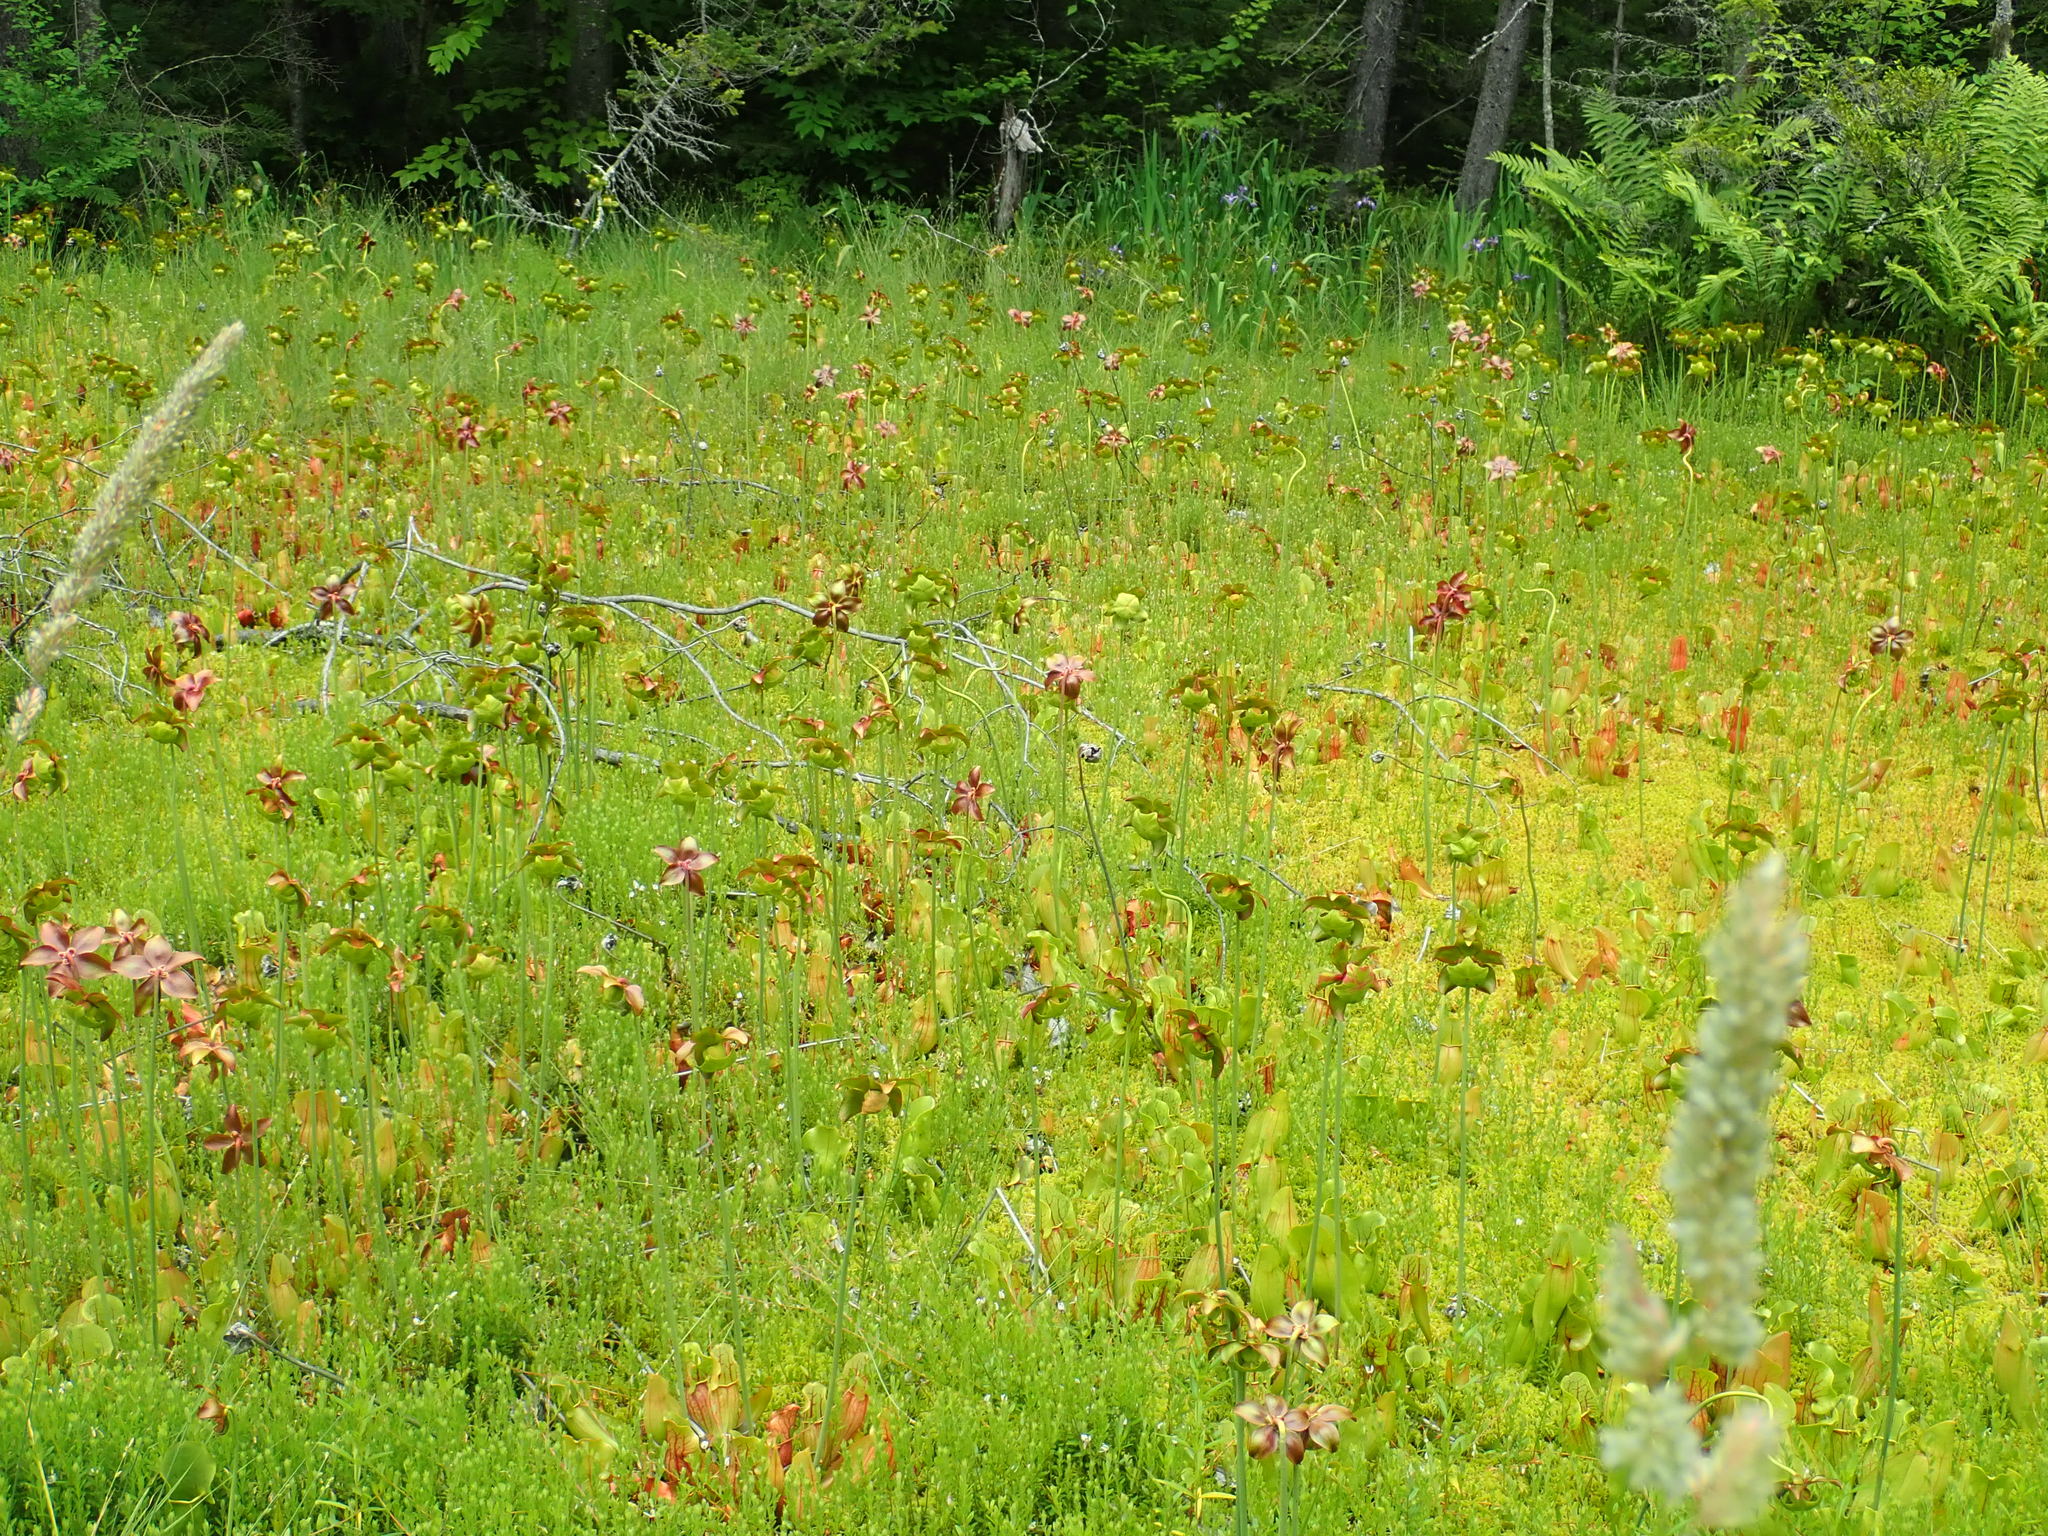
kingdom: Plantae
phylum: Tracheophyta
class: Magnoliopsida
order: Ericales
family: Sarraceniaceae
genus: Sarracenia
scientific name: Sarracenia purpurea
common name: Pitcherplant
